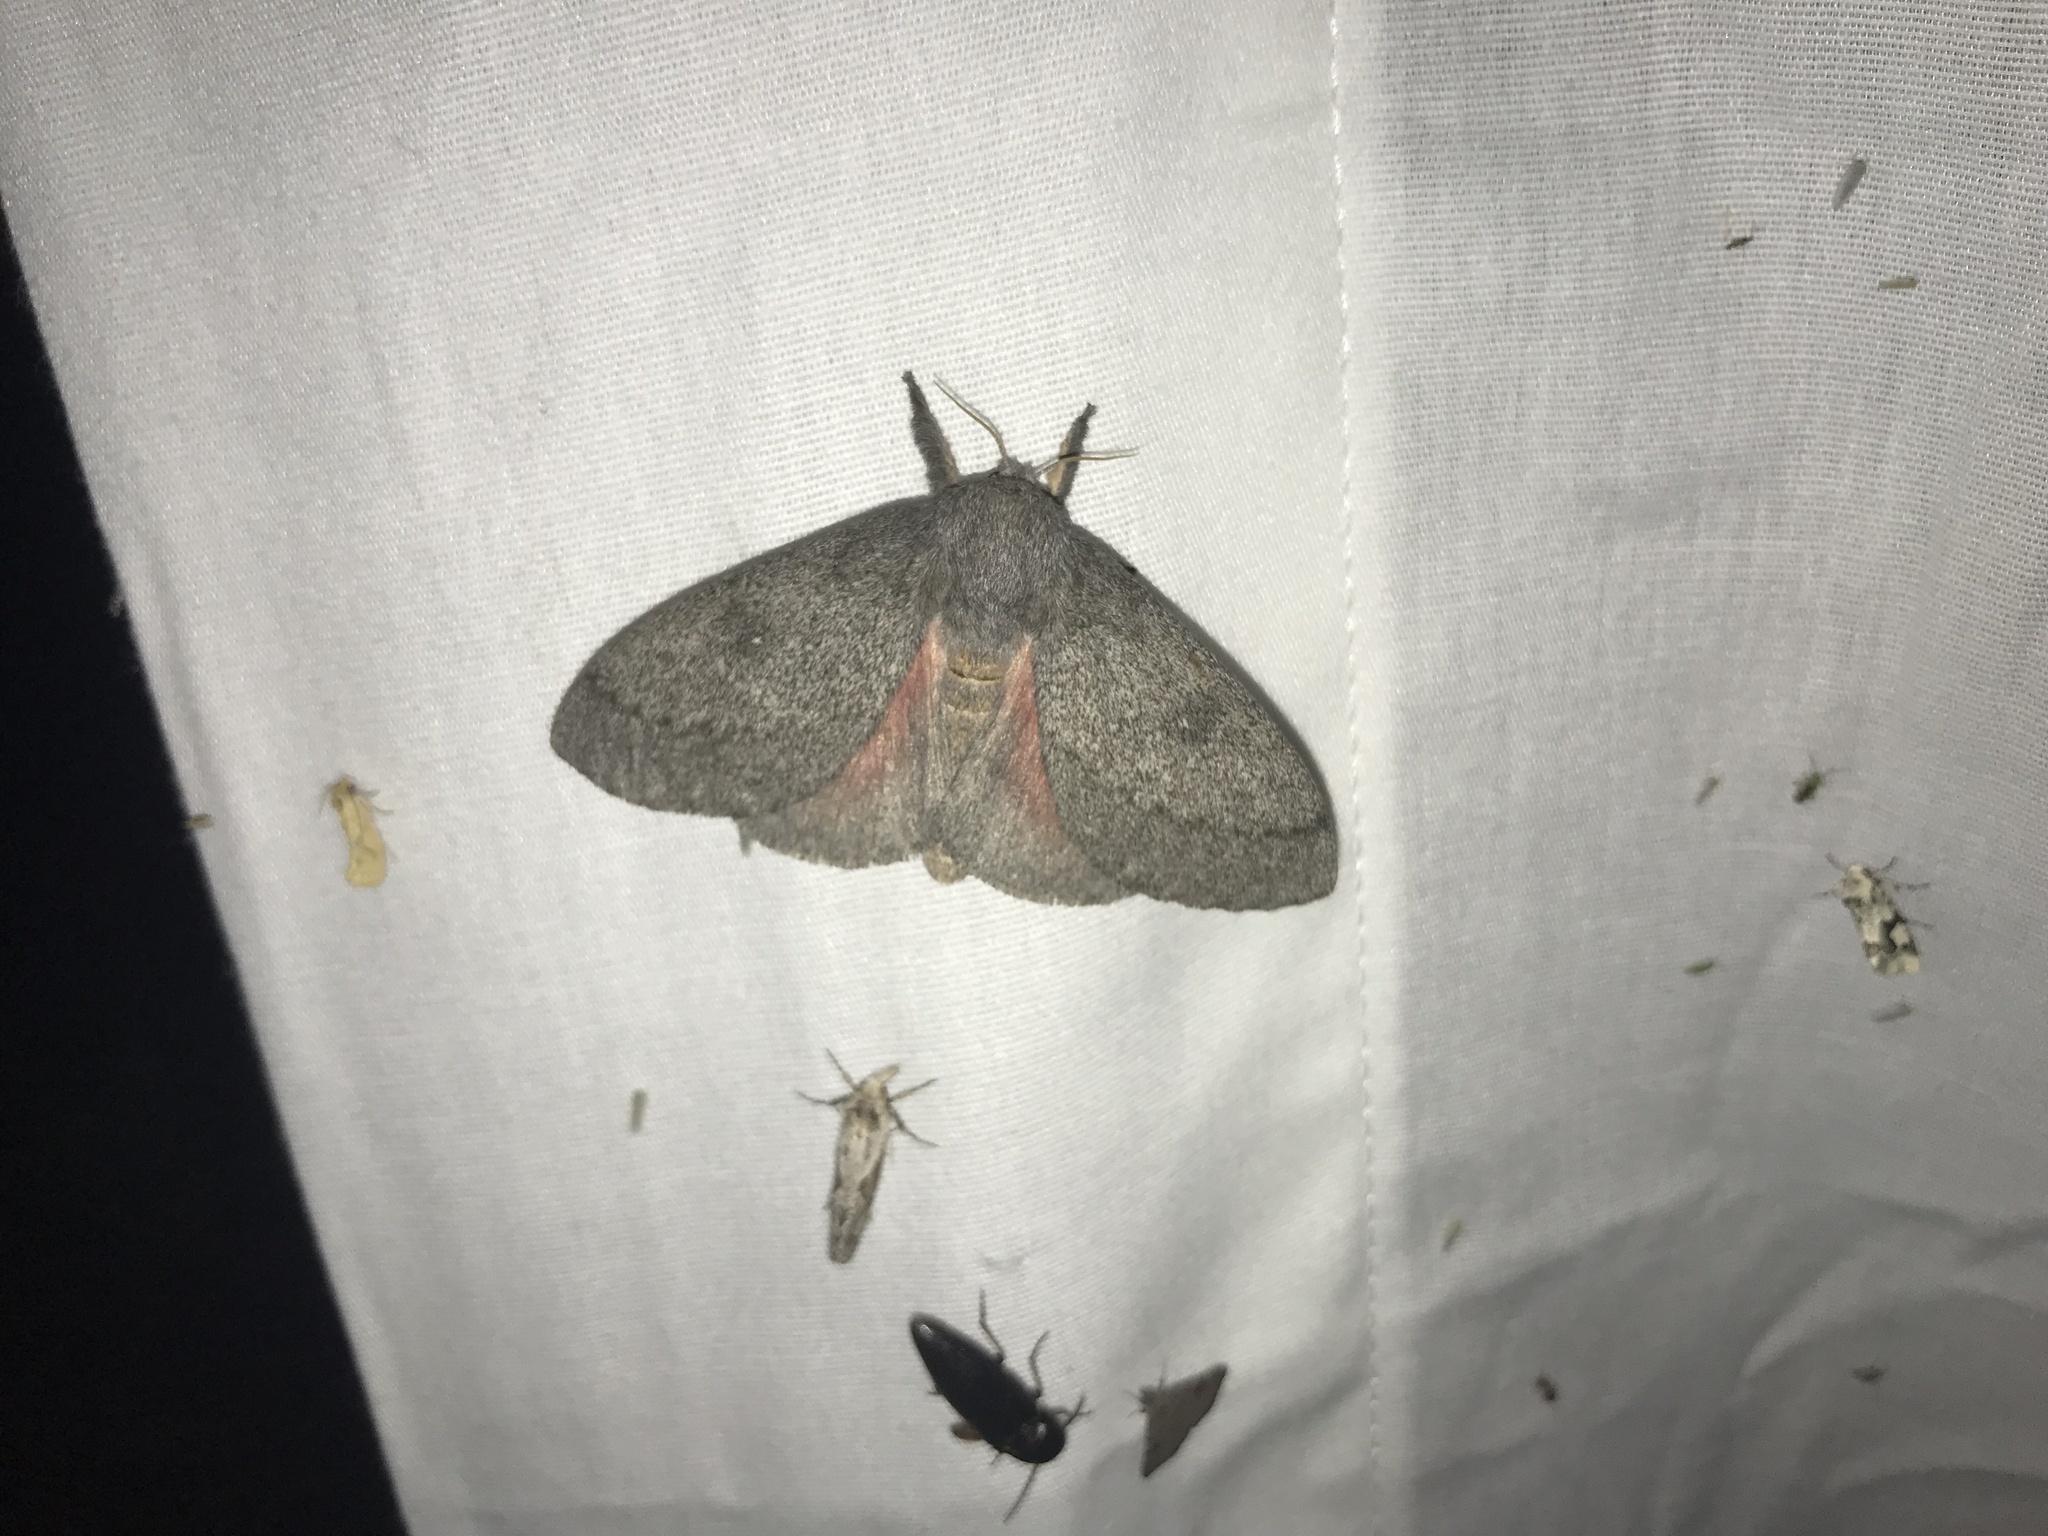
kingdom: Animalia
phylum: Arthropoda
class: Insecta
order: Lepidoptera
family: Saturniidae
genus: Syssphinx
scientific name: Syssphinx hubbardi
